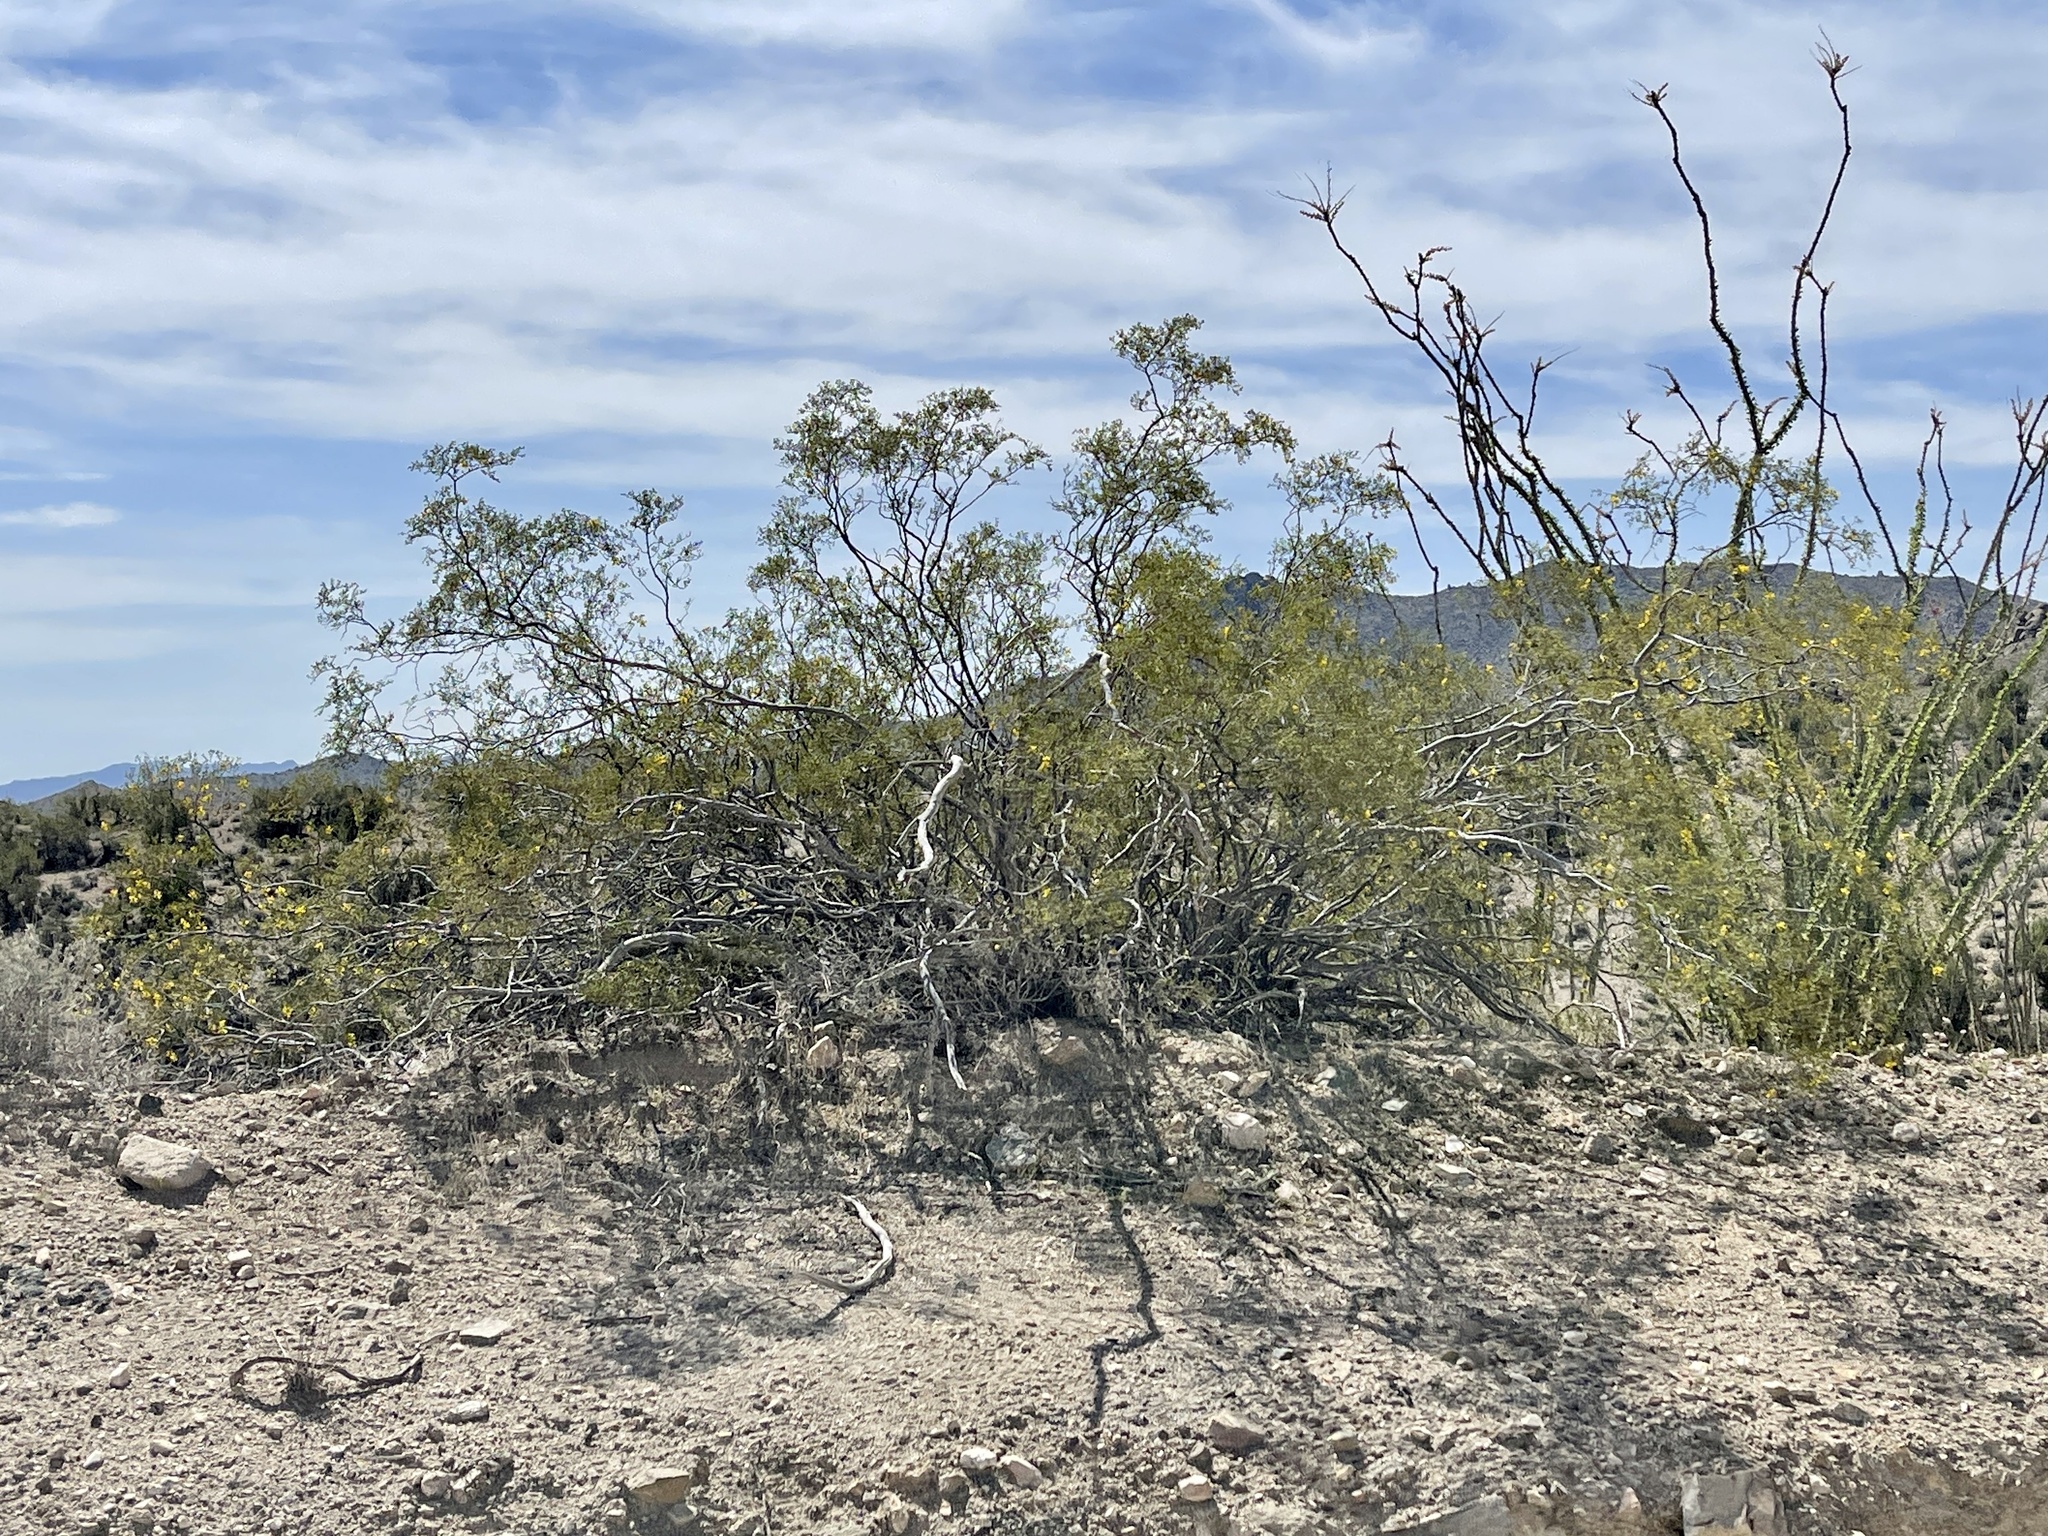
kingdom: Plantae
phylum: Tracheophyta
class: Magnoliopsida
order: Zygophyllales
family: Zygophyllaceae
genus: Larrea
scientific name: Larrea tridentata
